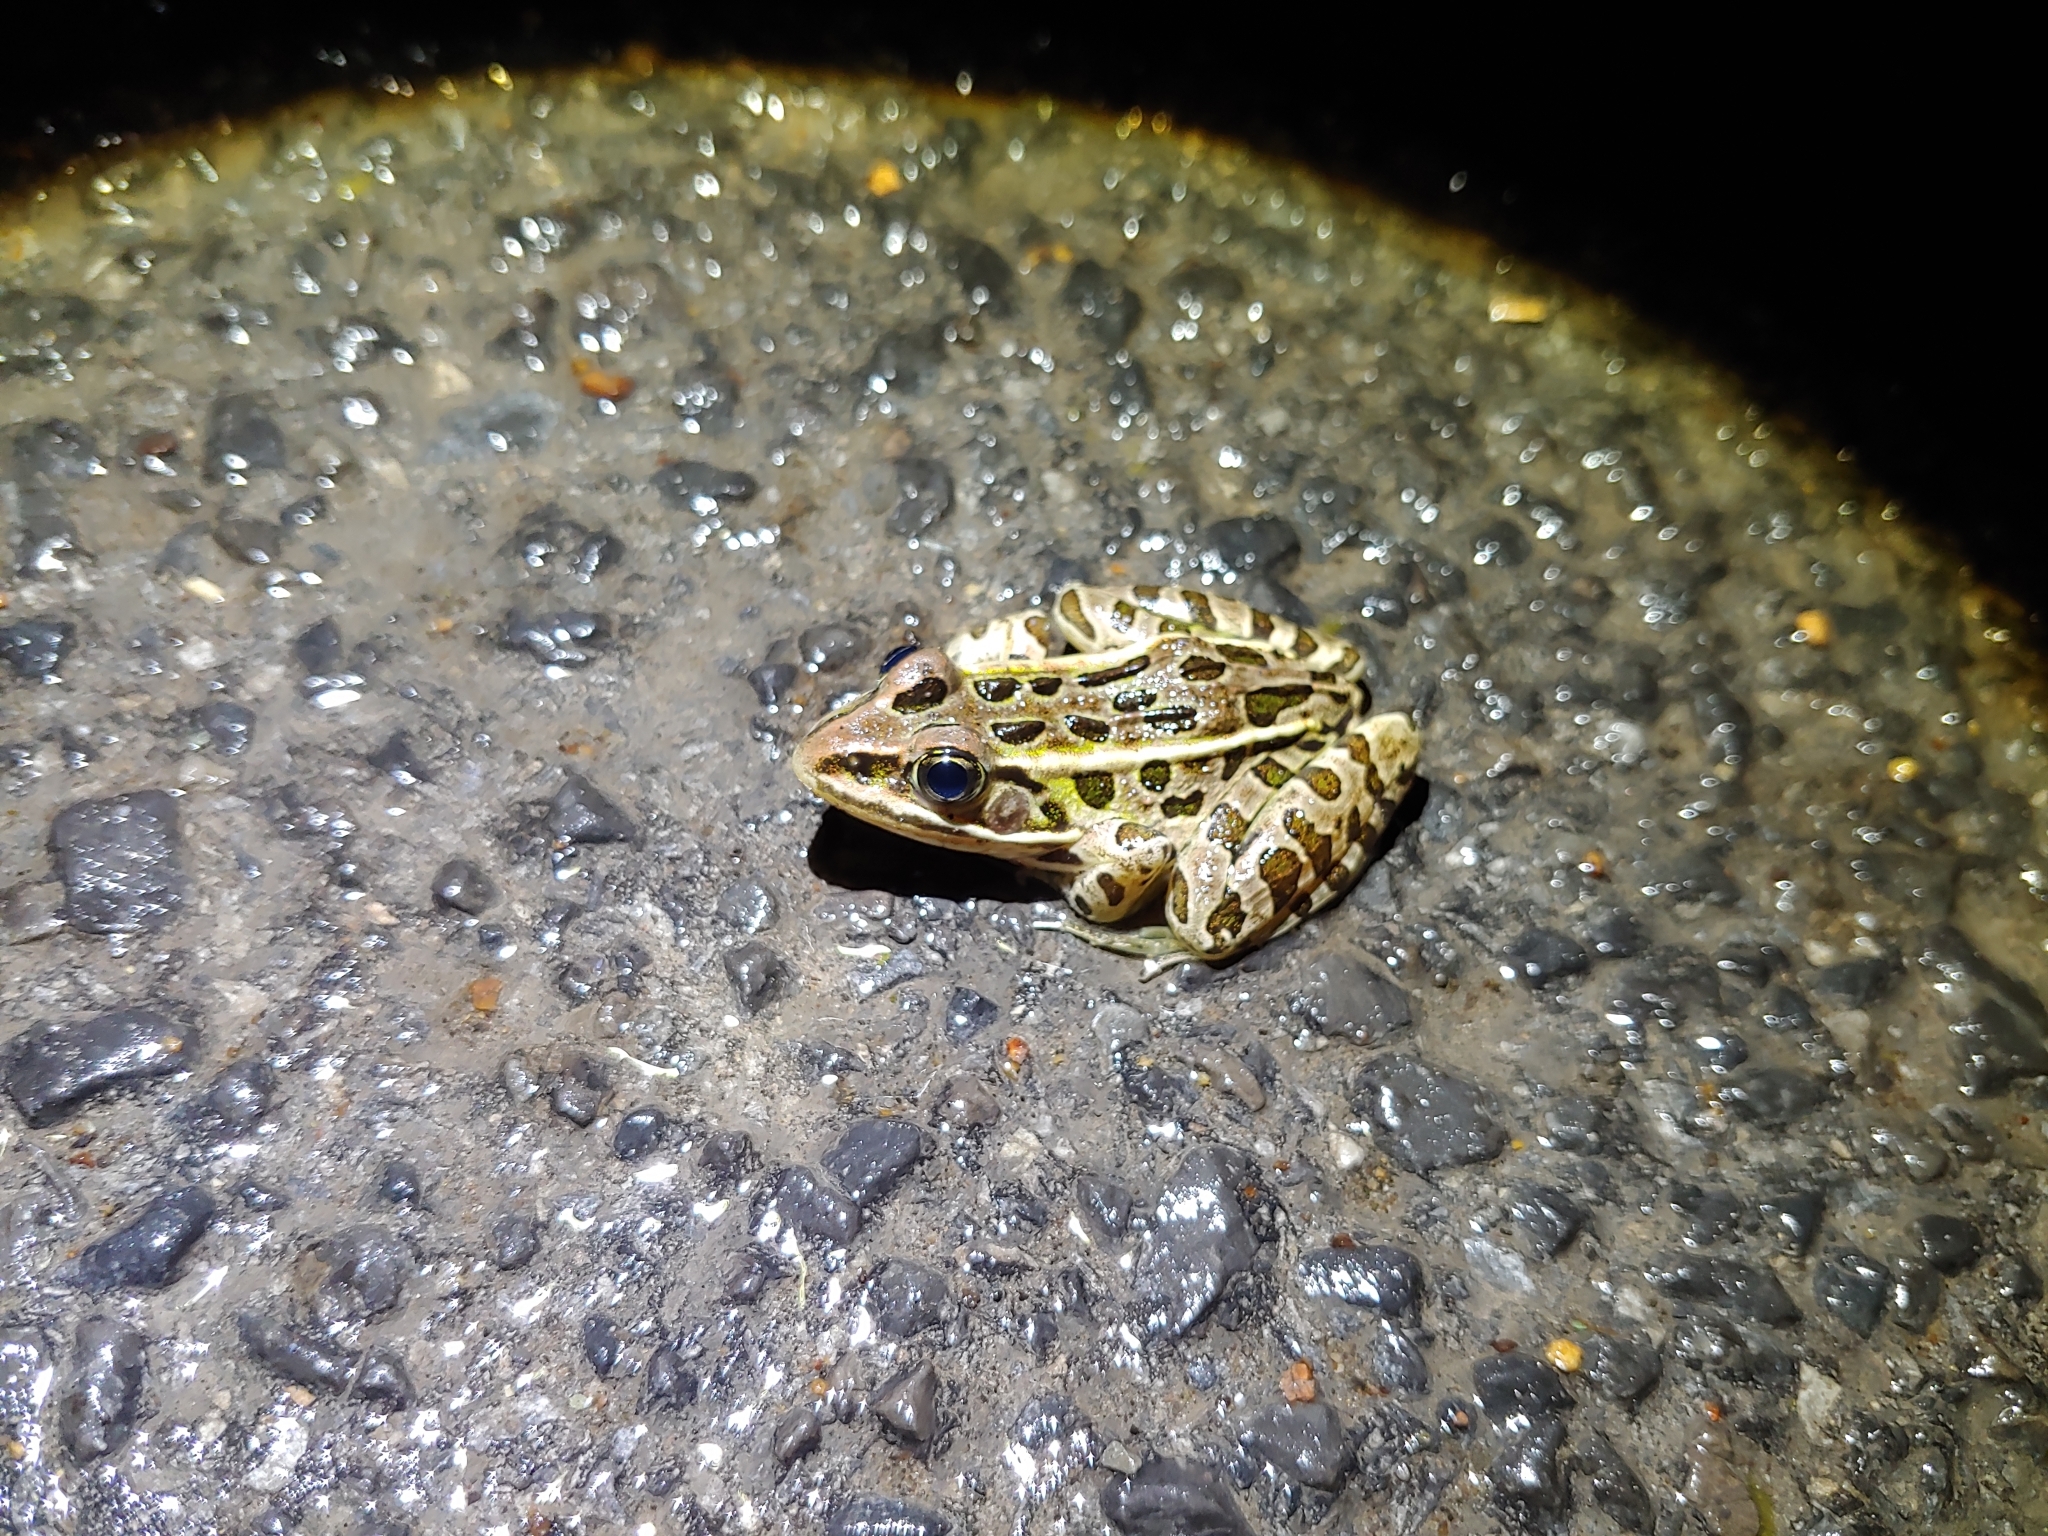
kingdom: Animalia
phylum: Chordata
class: Amphibia
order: Anura
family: Ranidae
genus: Lithobates
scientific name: Lithobates pipiens
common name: Northern leopard frog
